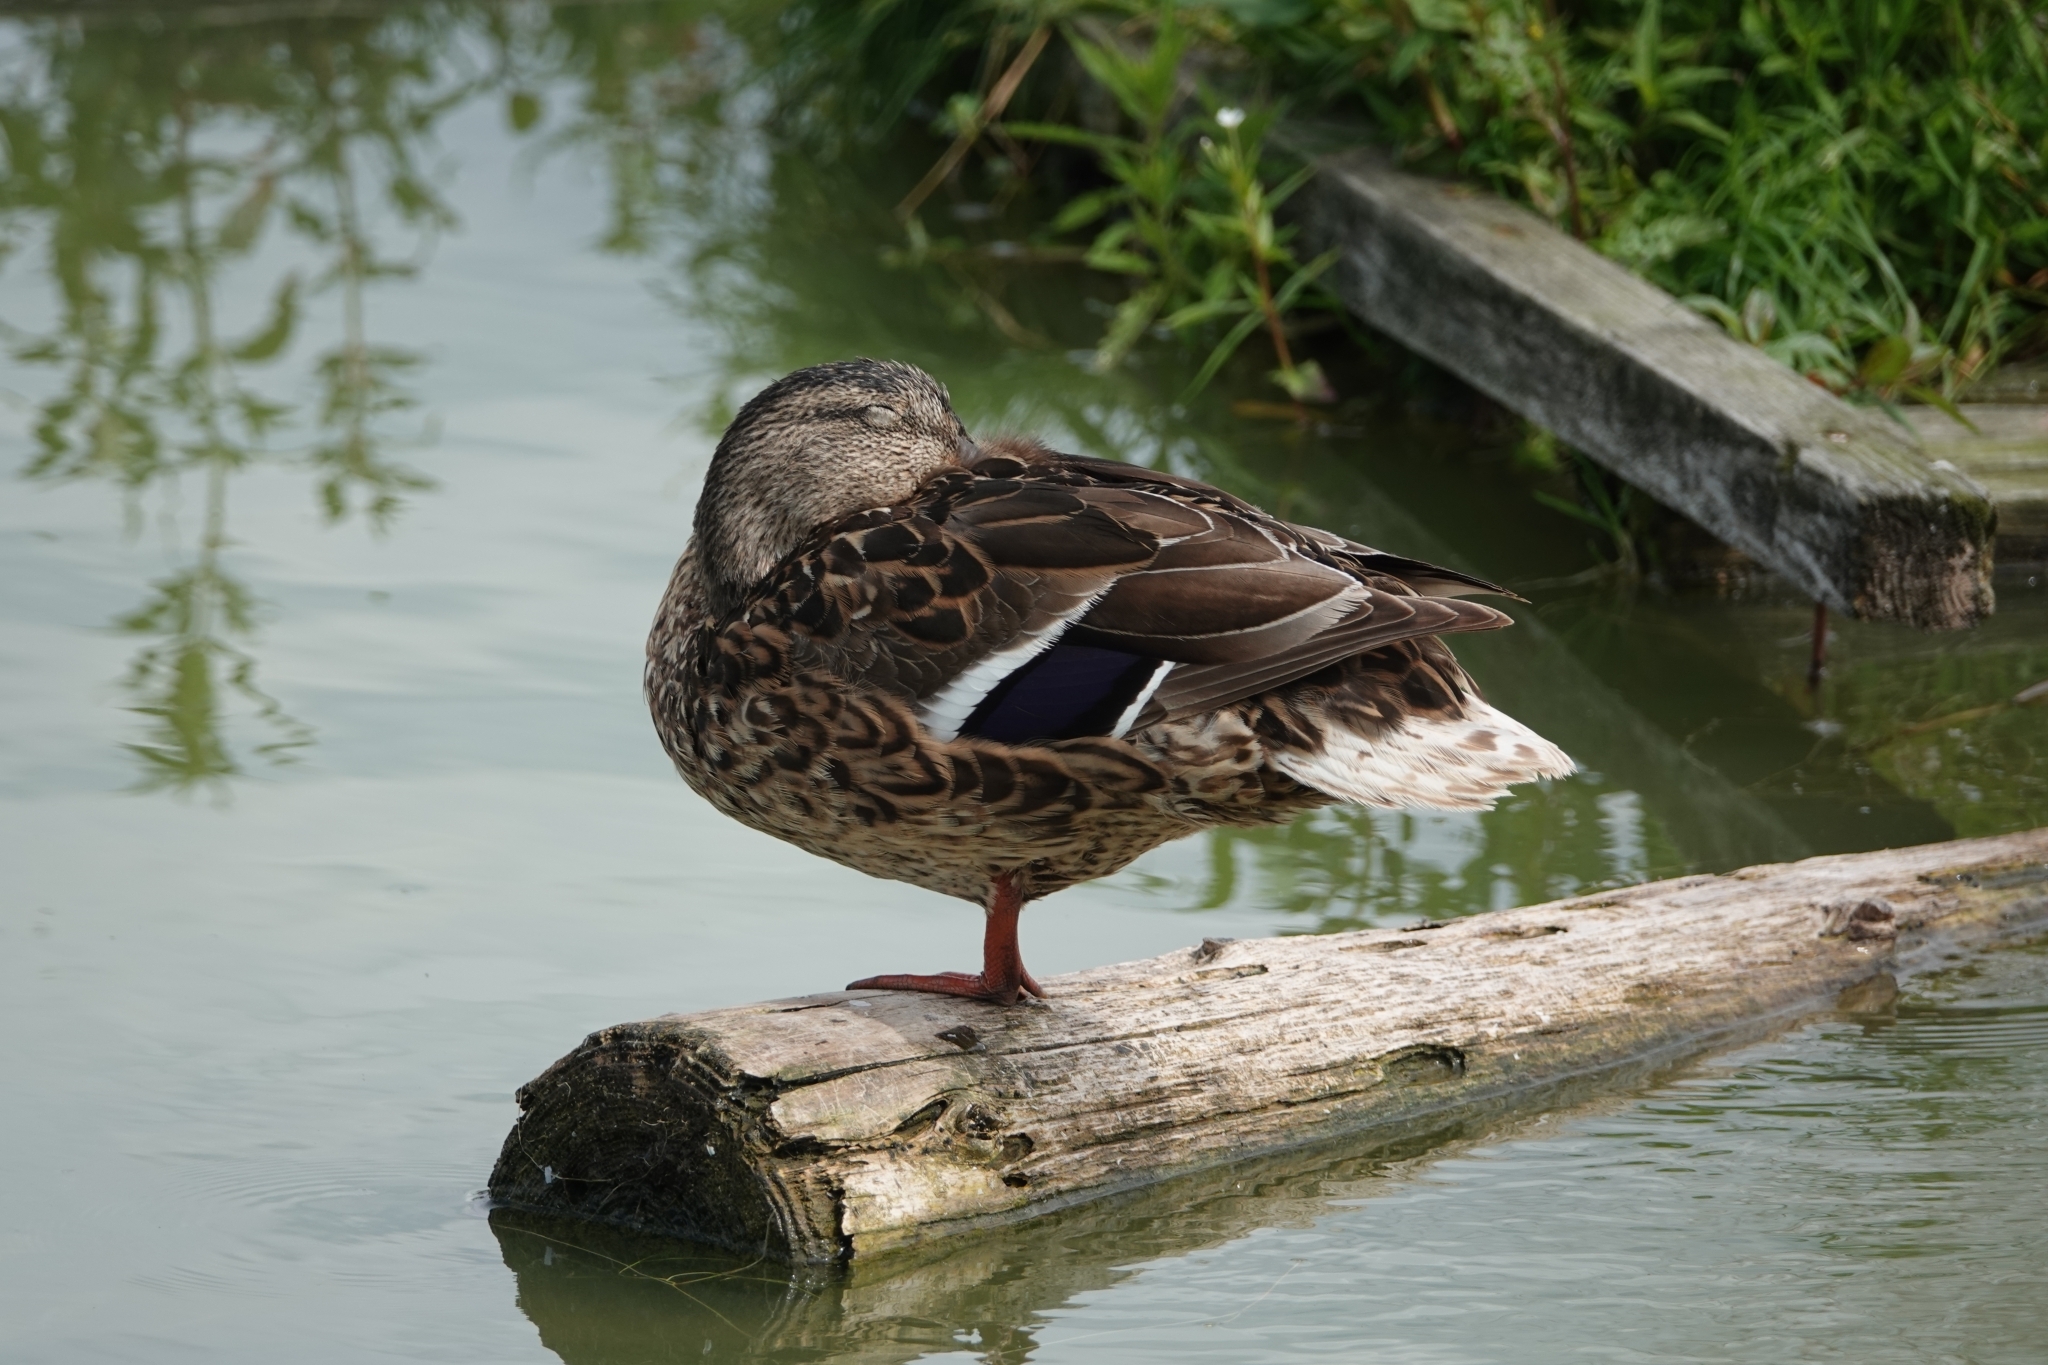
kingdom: Animalia
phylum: Chordata
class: Aves
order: Anseriformes
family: Anatidae
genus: Anas
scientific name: Anas platyrhynchos
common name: Mallard
